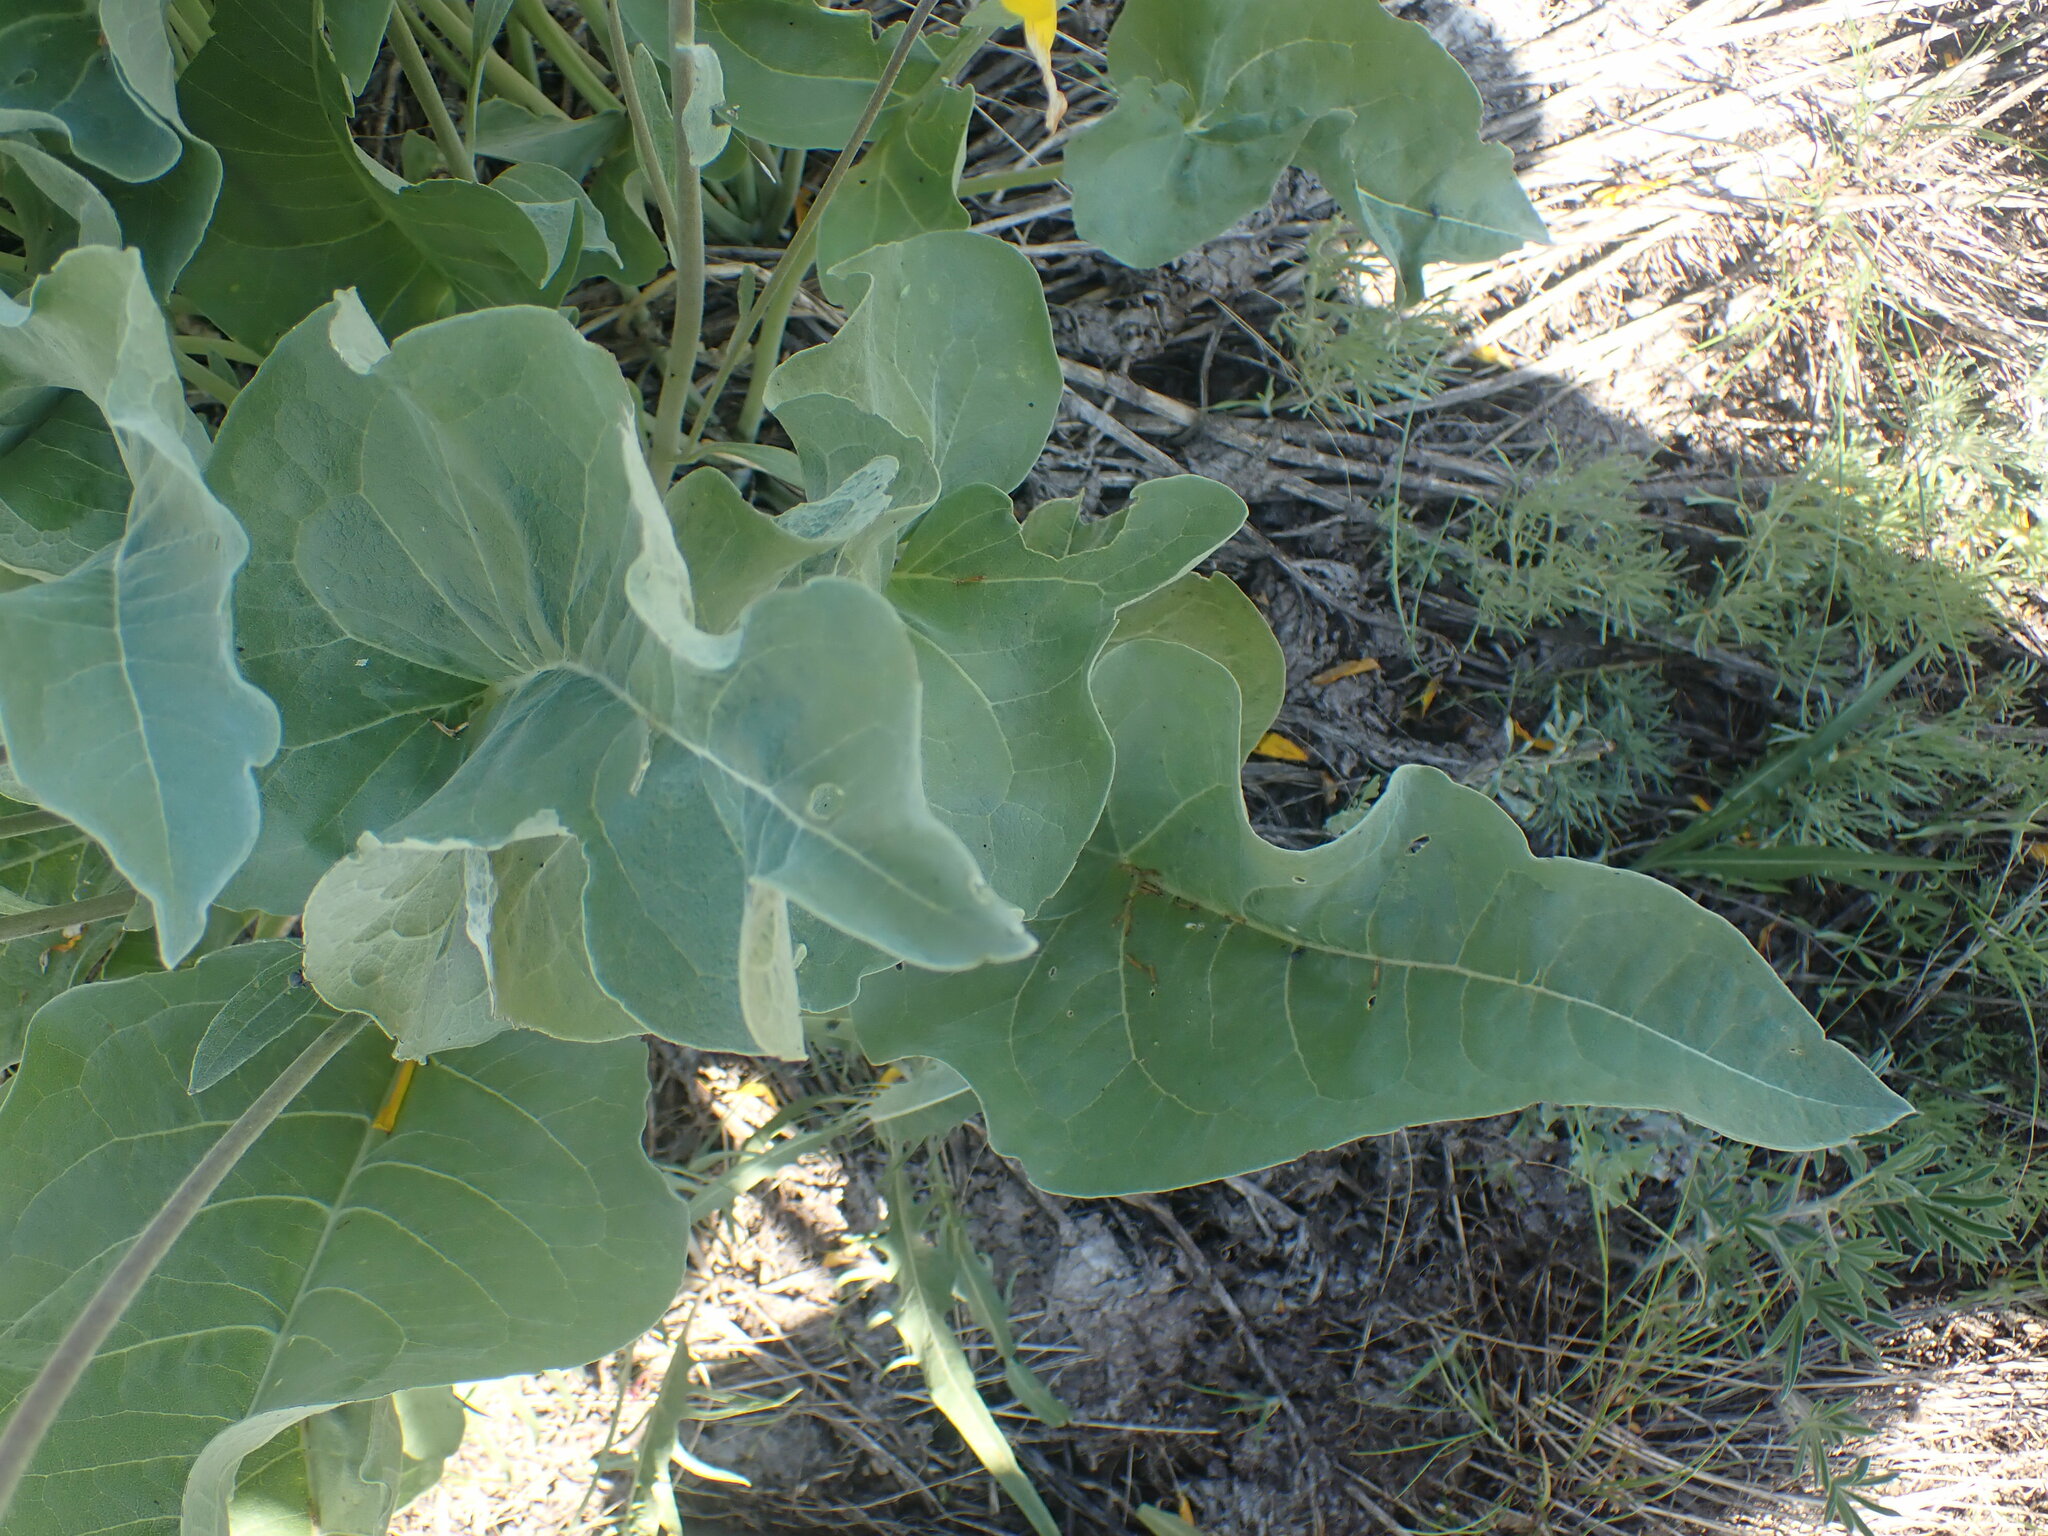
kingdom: Plantae
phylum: Tracheophyta
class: Magnoliopsida
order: Asterales
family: Asteraceae
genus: Wyethia
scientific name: Wyethia sagittata
